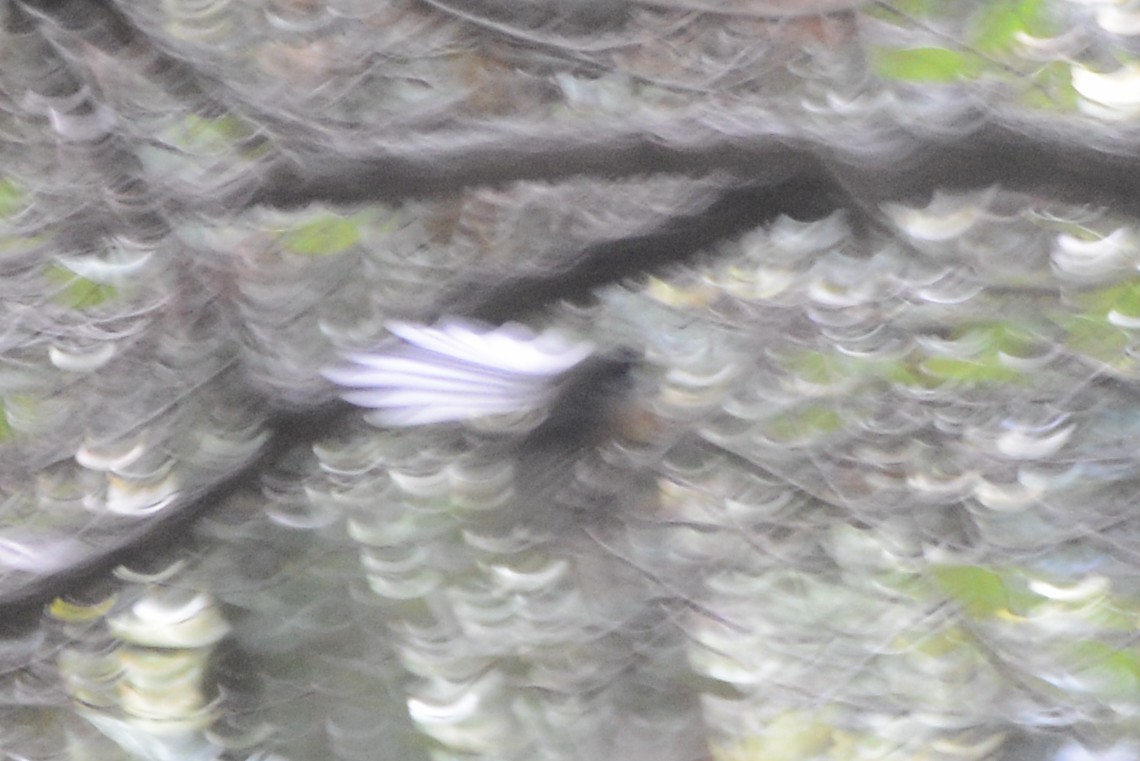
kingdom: Animalia
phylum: Chordata
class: Aves
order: Passeriformes
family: Rhipiduridae
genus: Rhipidura
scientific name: Rhipidura fuliginosa
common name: New zealand fantail
